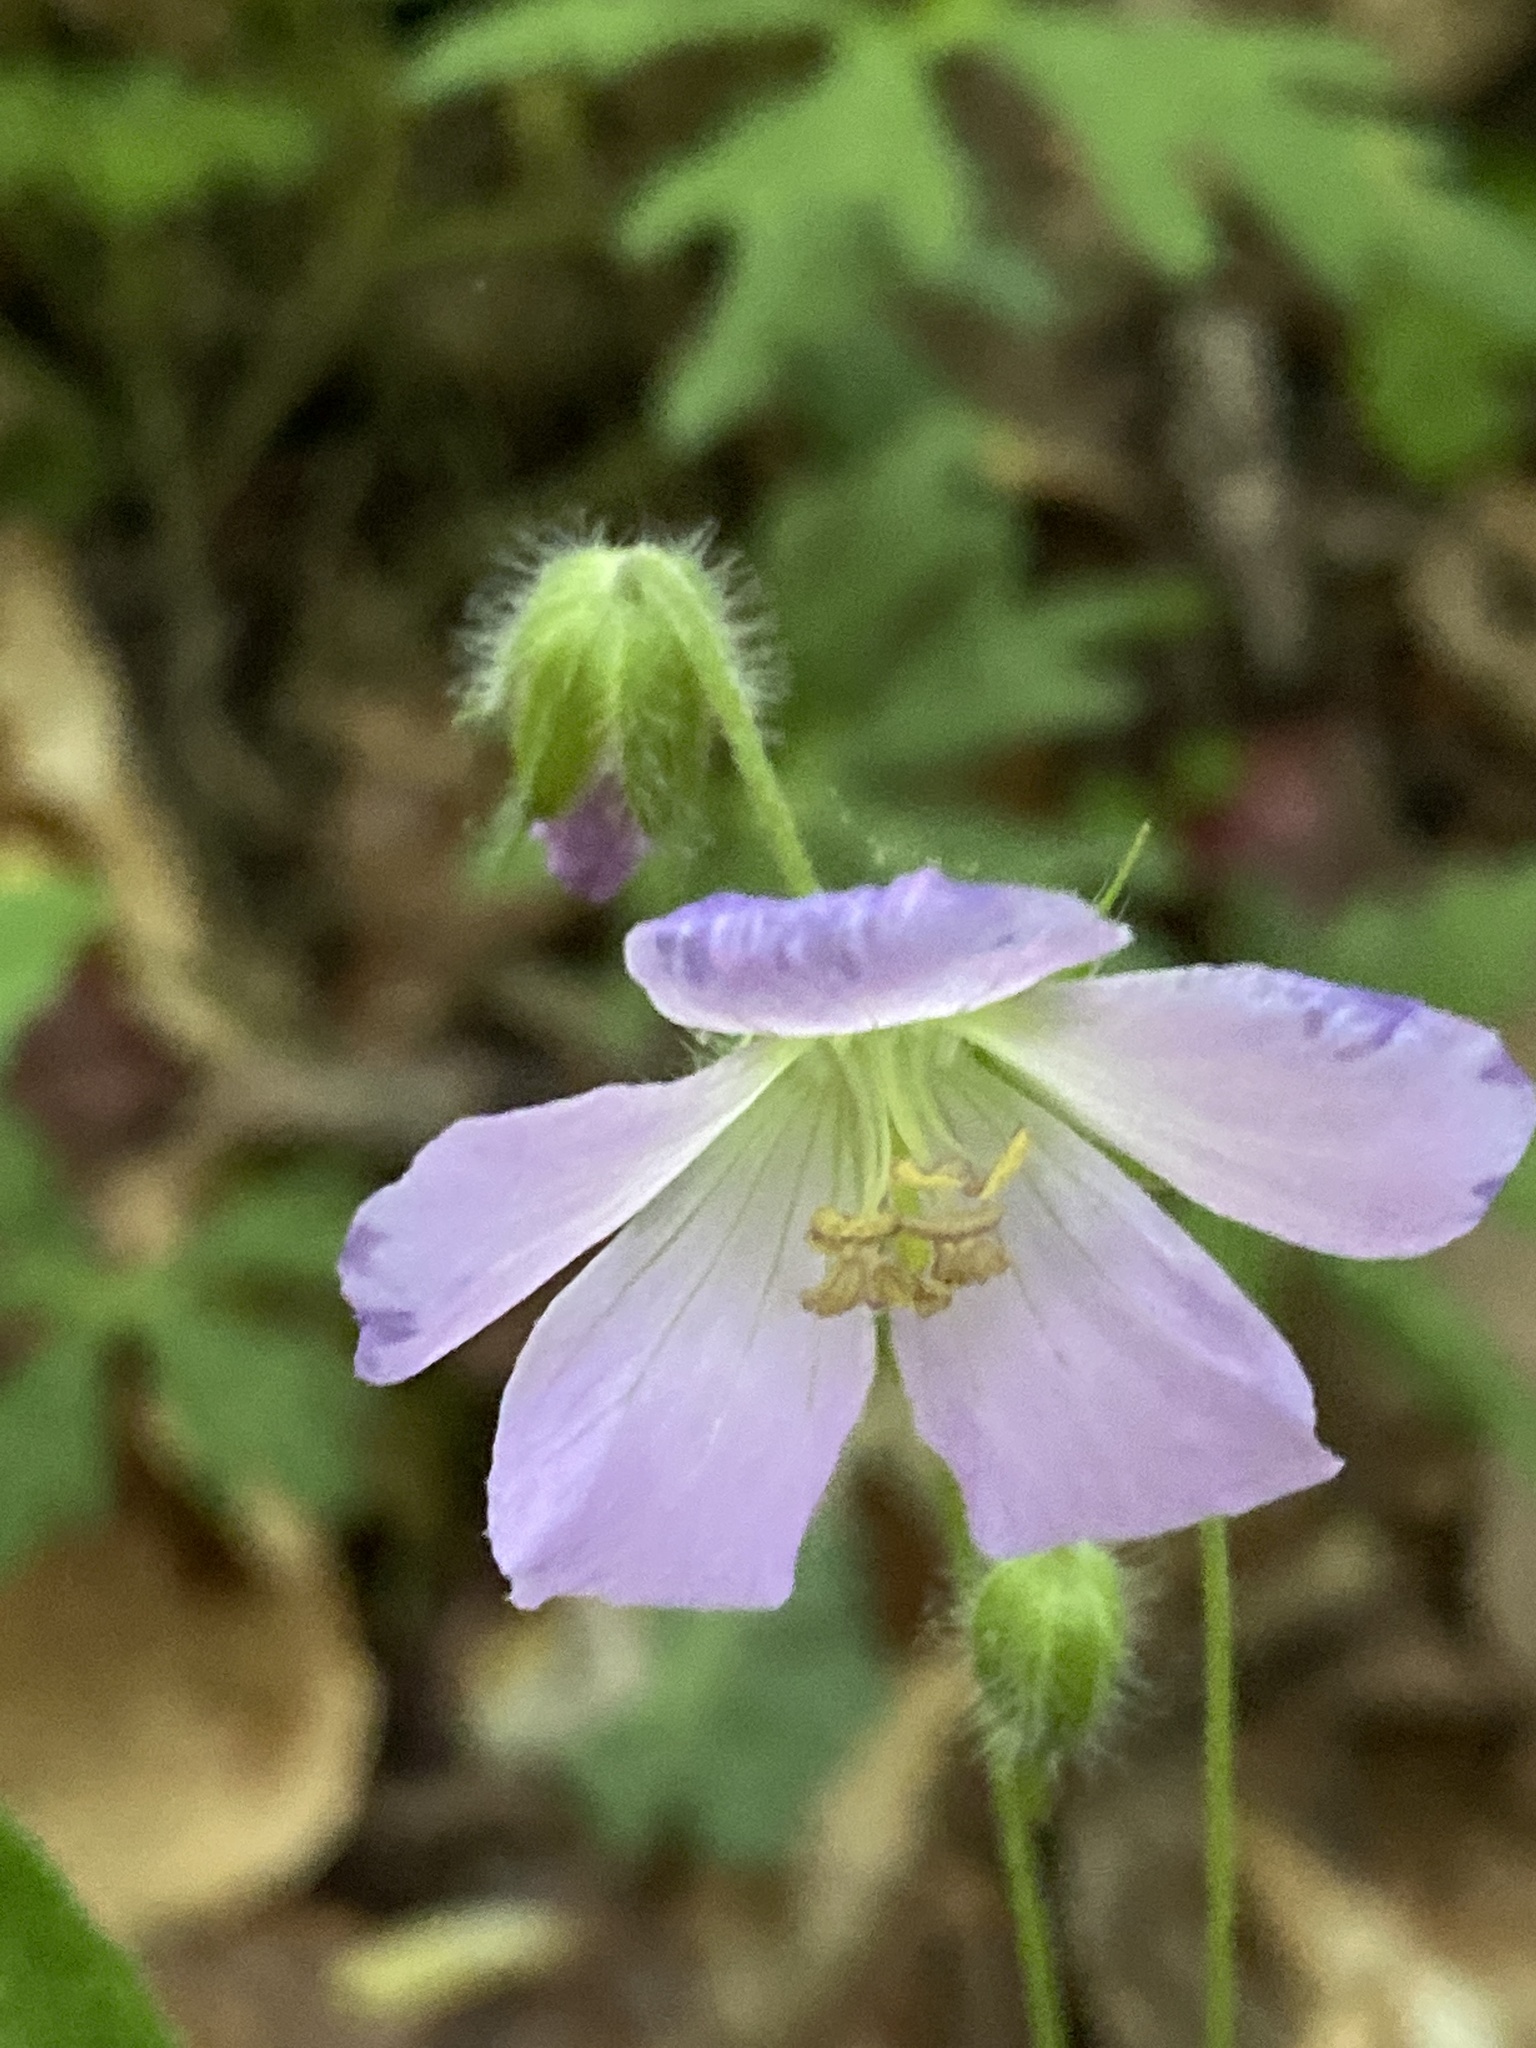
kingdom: Plantae
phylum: Tracheophyta
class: Magnoliopsida
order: Geraniales
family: Geraniaceae
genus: Geranium
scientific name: Geranium maculatum
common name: Spotted geranium
